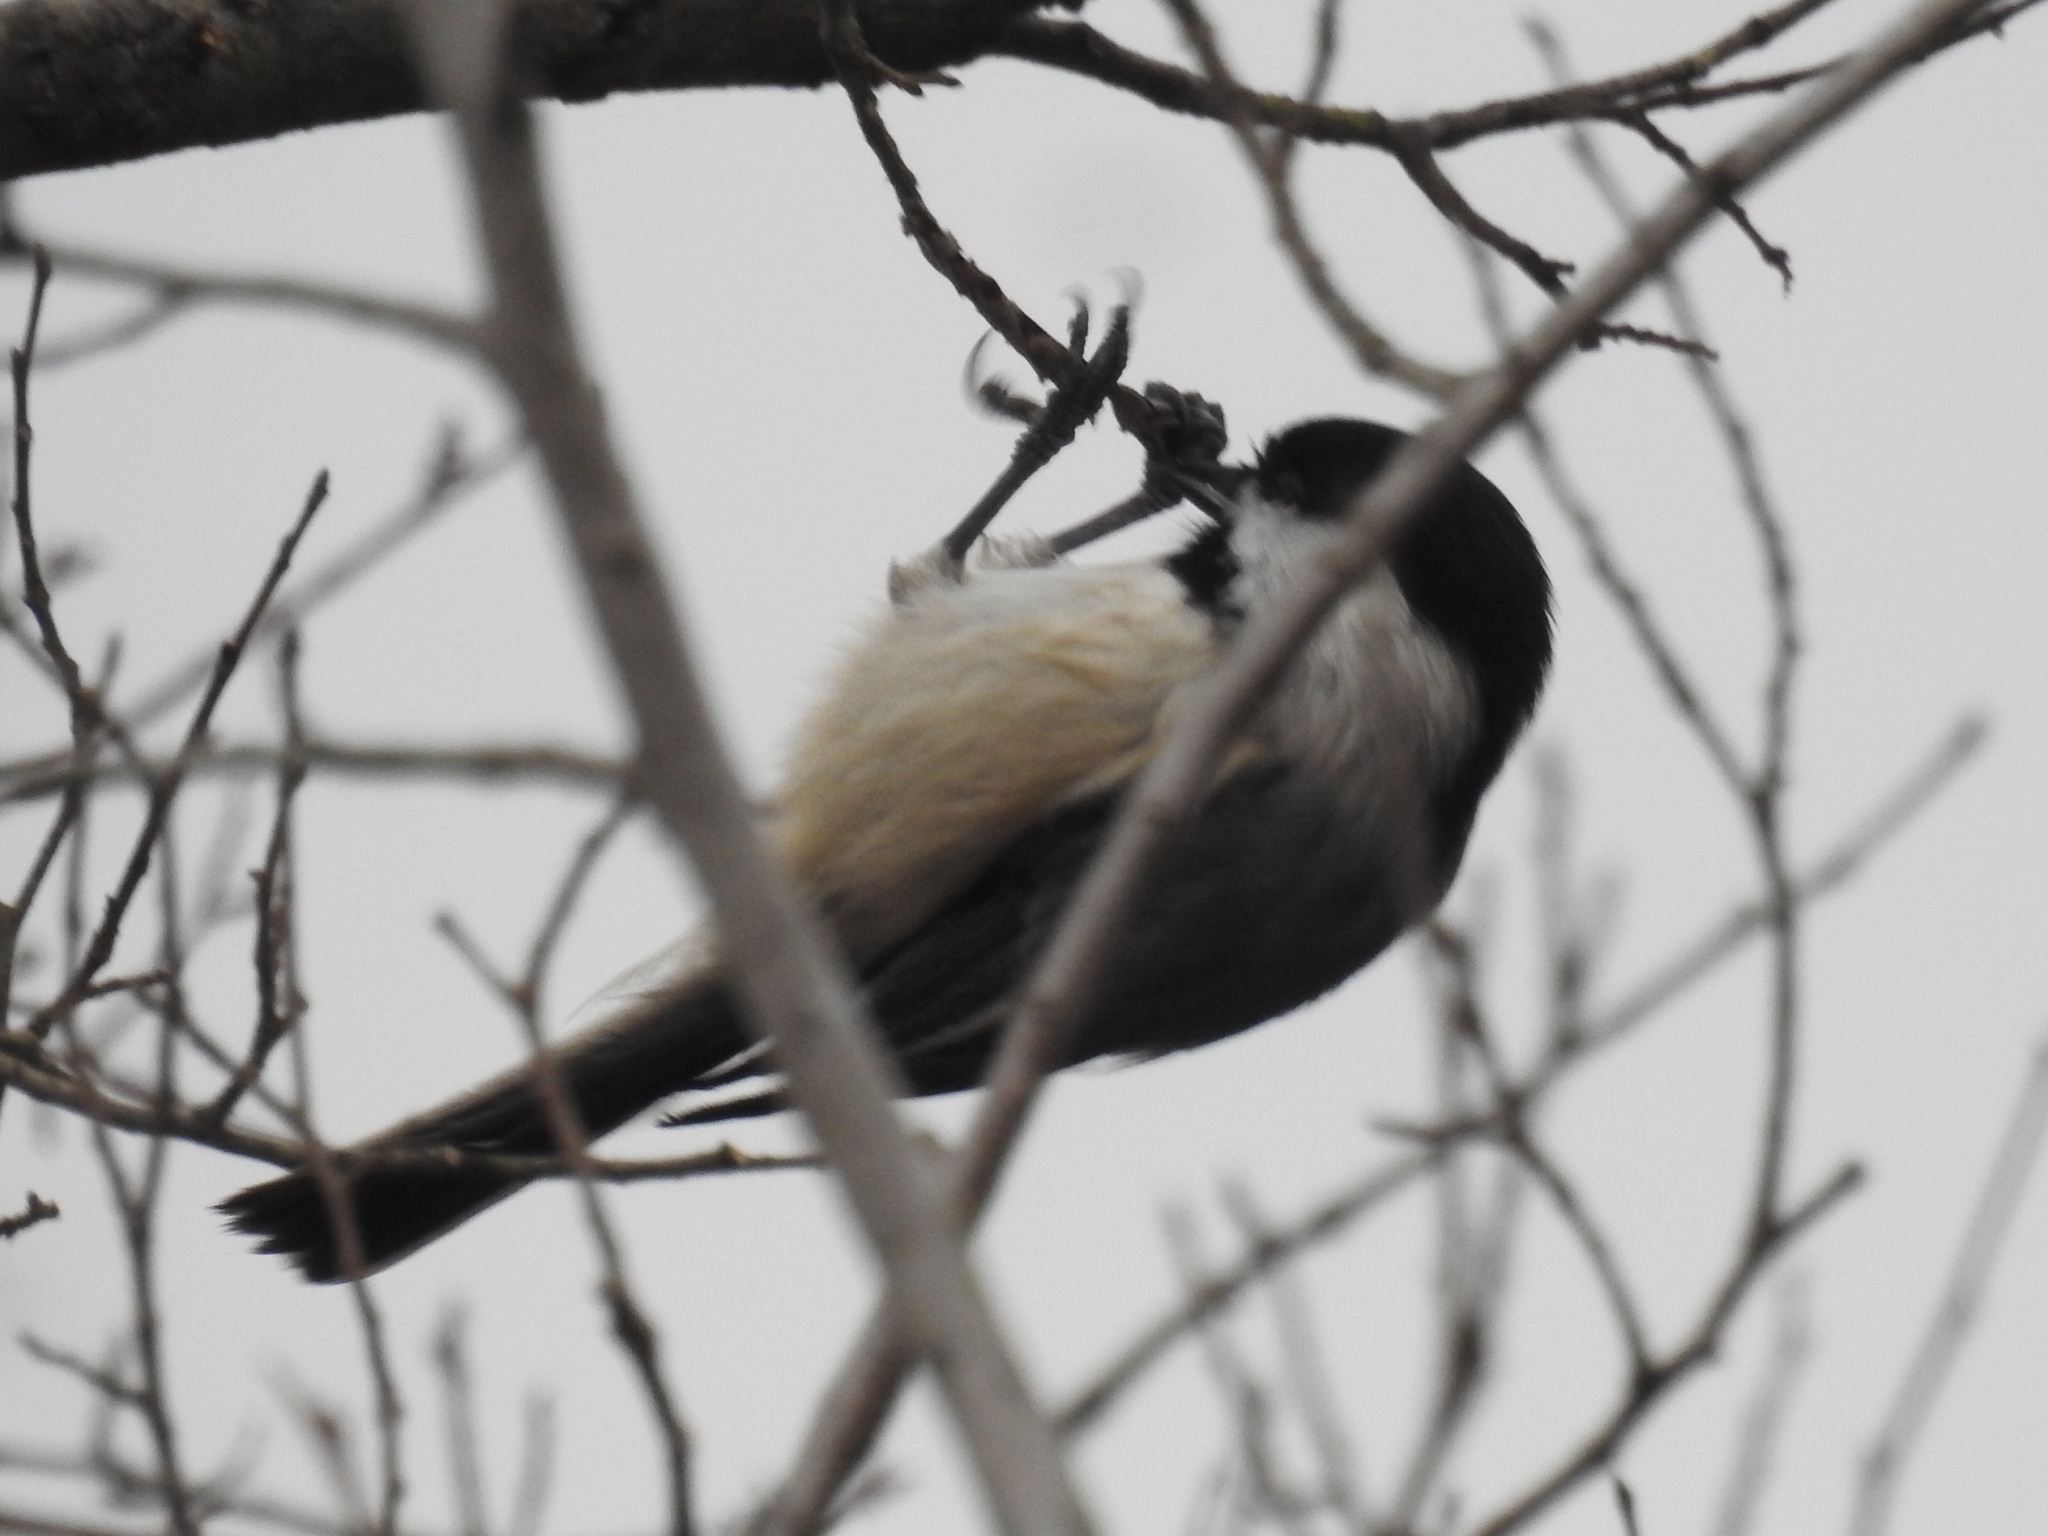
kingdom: Animalia
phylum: Chordata
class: Aves
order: Passeriformes
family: Paridae
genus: Poecile
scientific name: Poecile carolinensis
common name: Carolina chickadee
